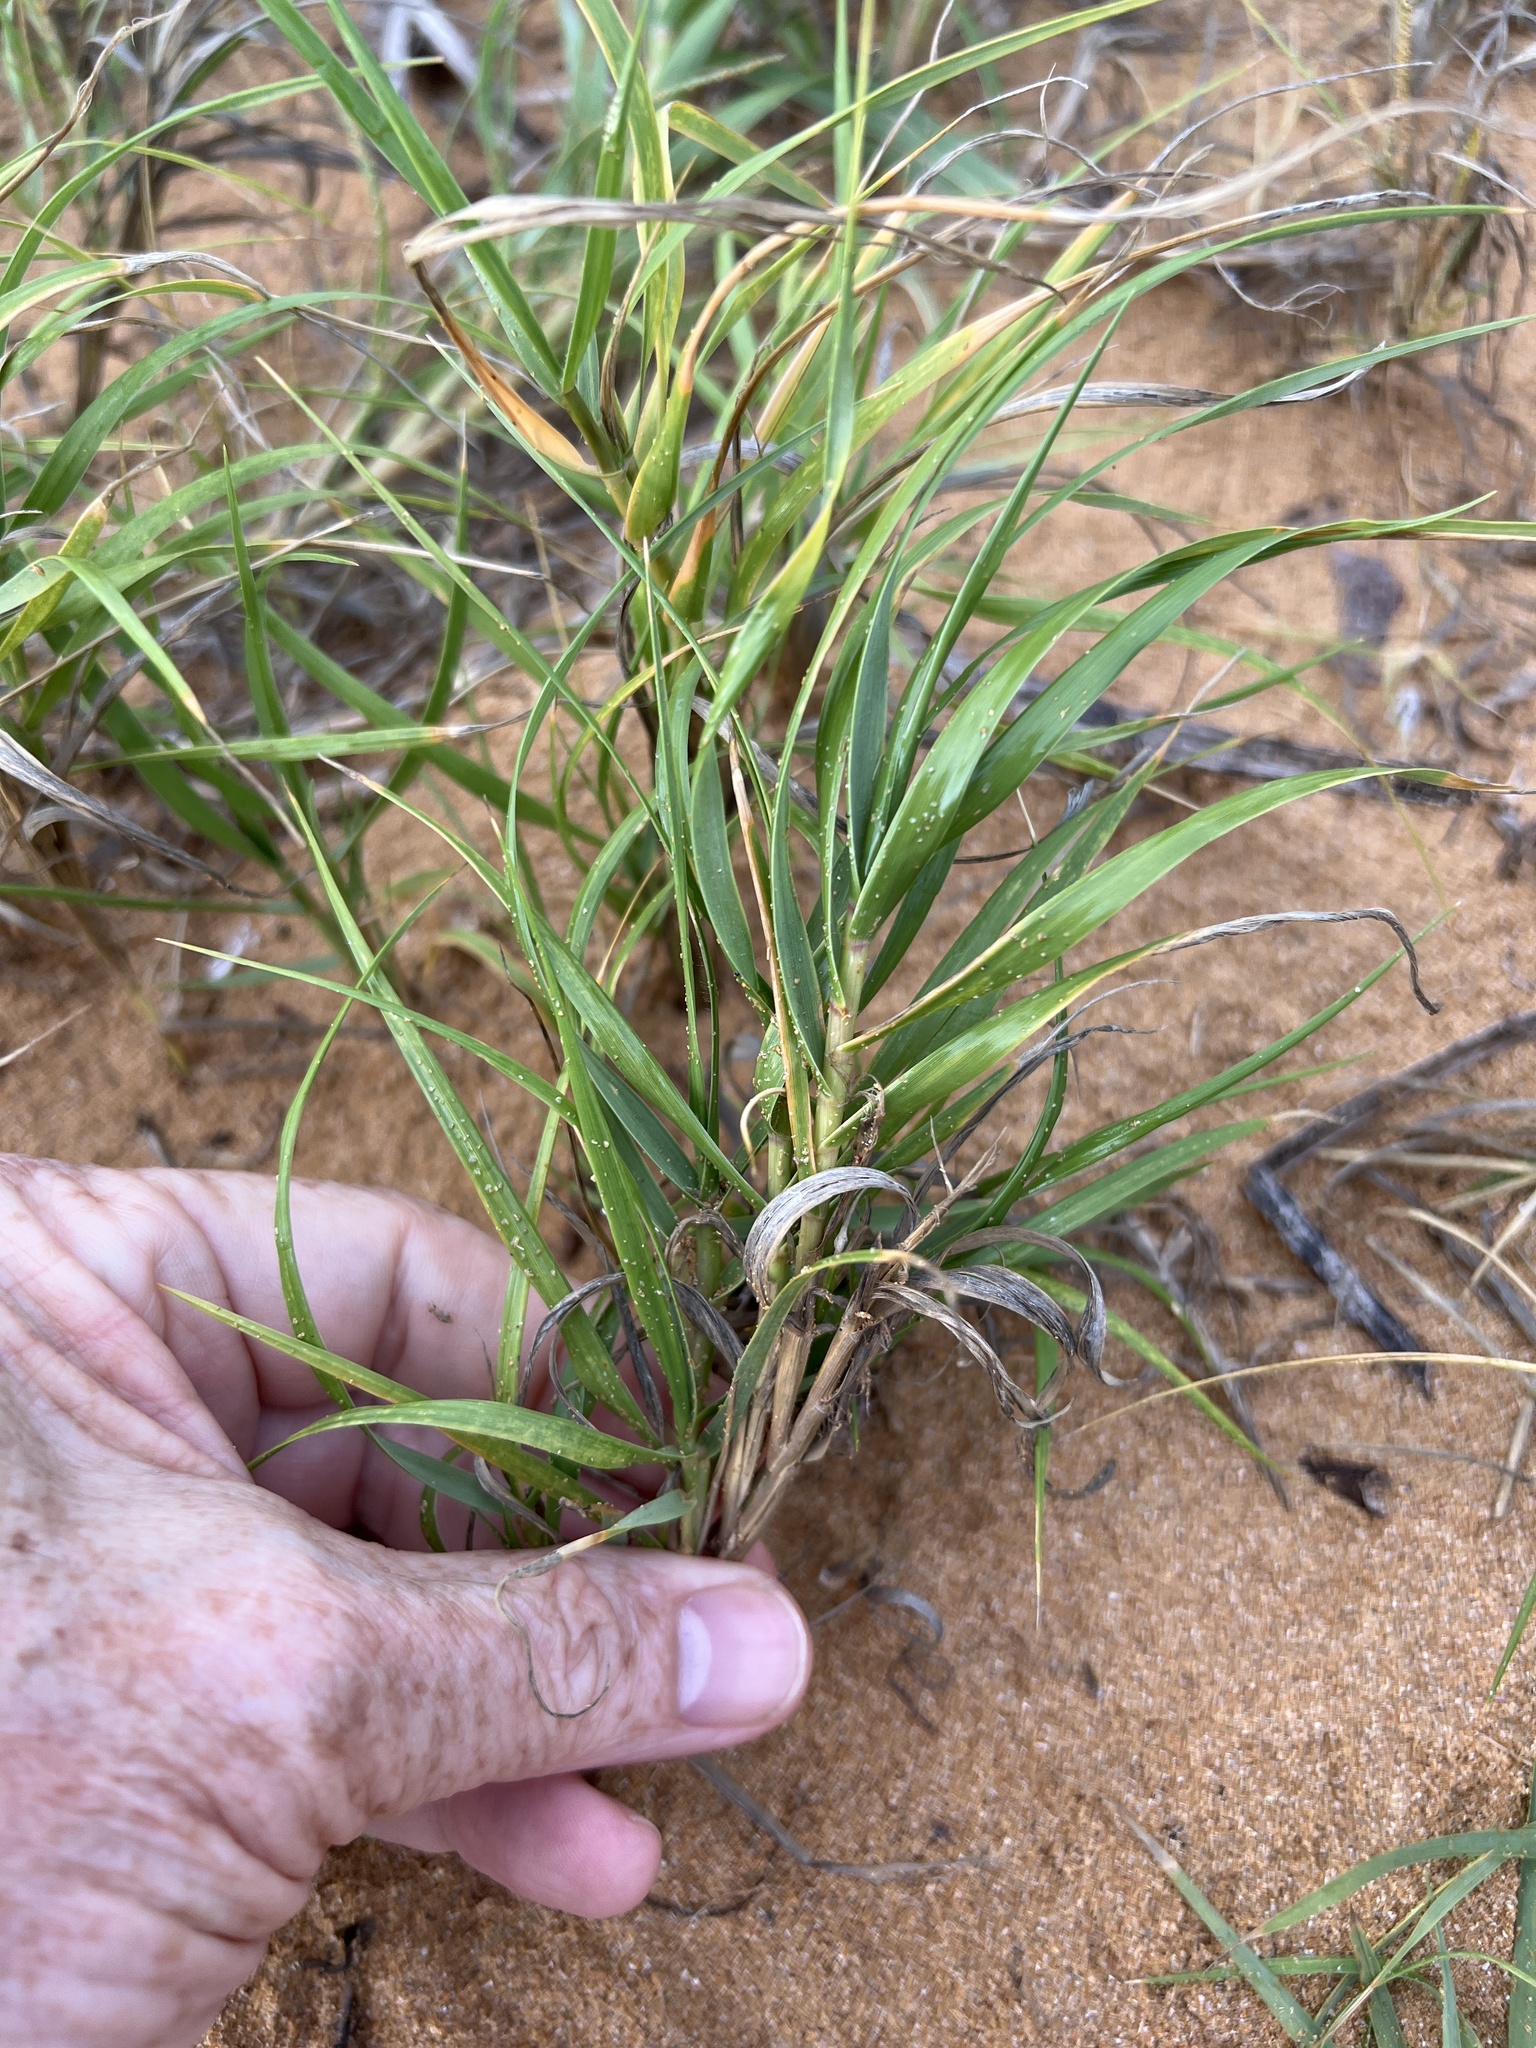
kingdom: Plantae
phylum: Tracheophyta
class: Liliopsida
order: Poales
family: Poaceae
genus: Sporobolus
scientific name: Sporobolus virginicus
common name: Beach dropseed
